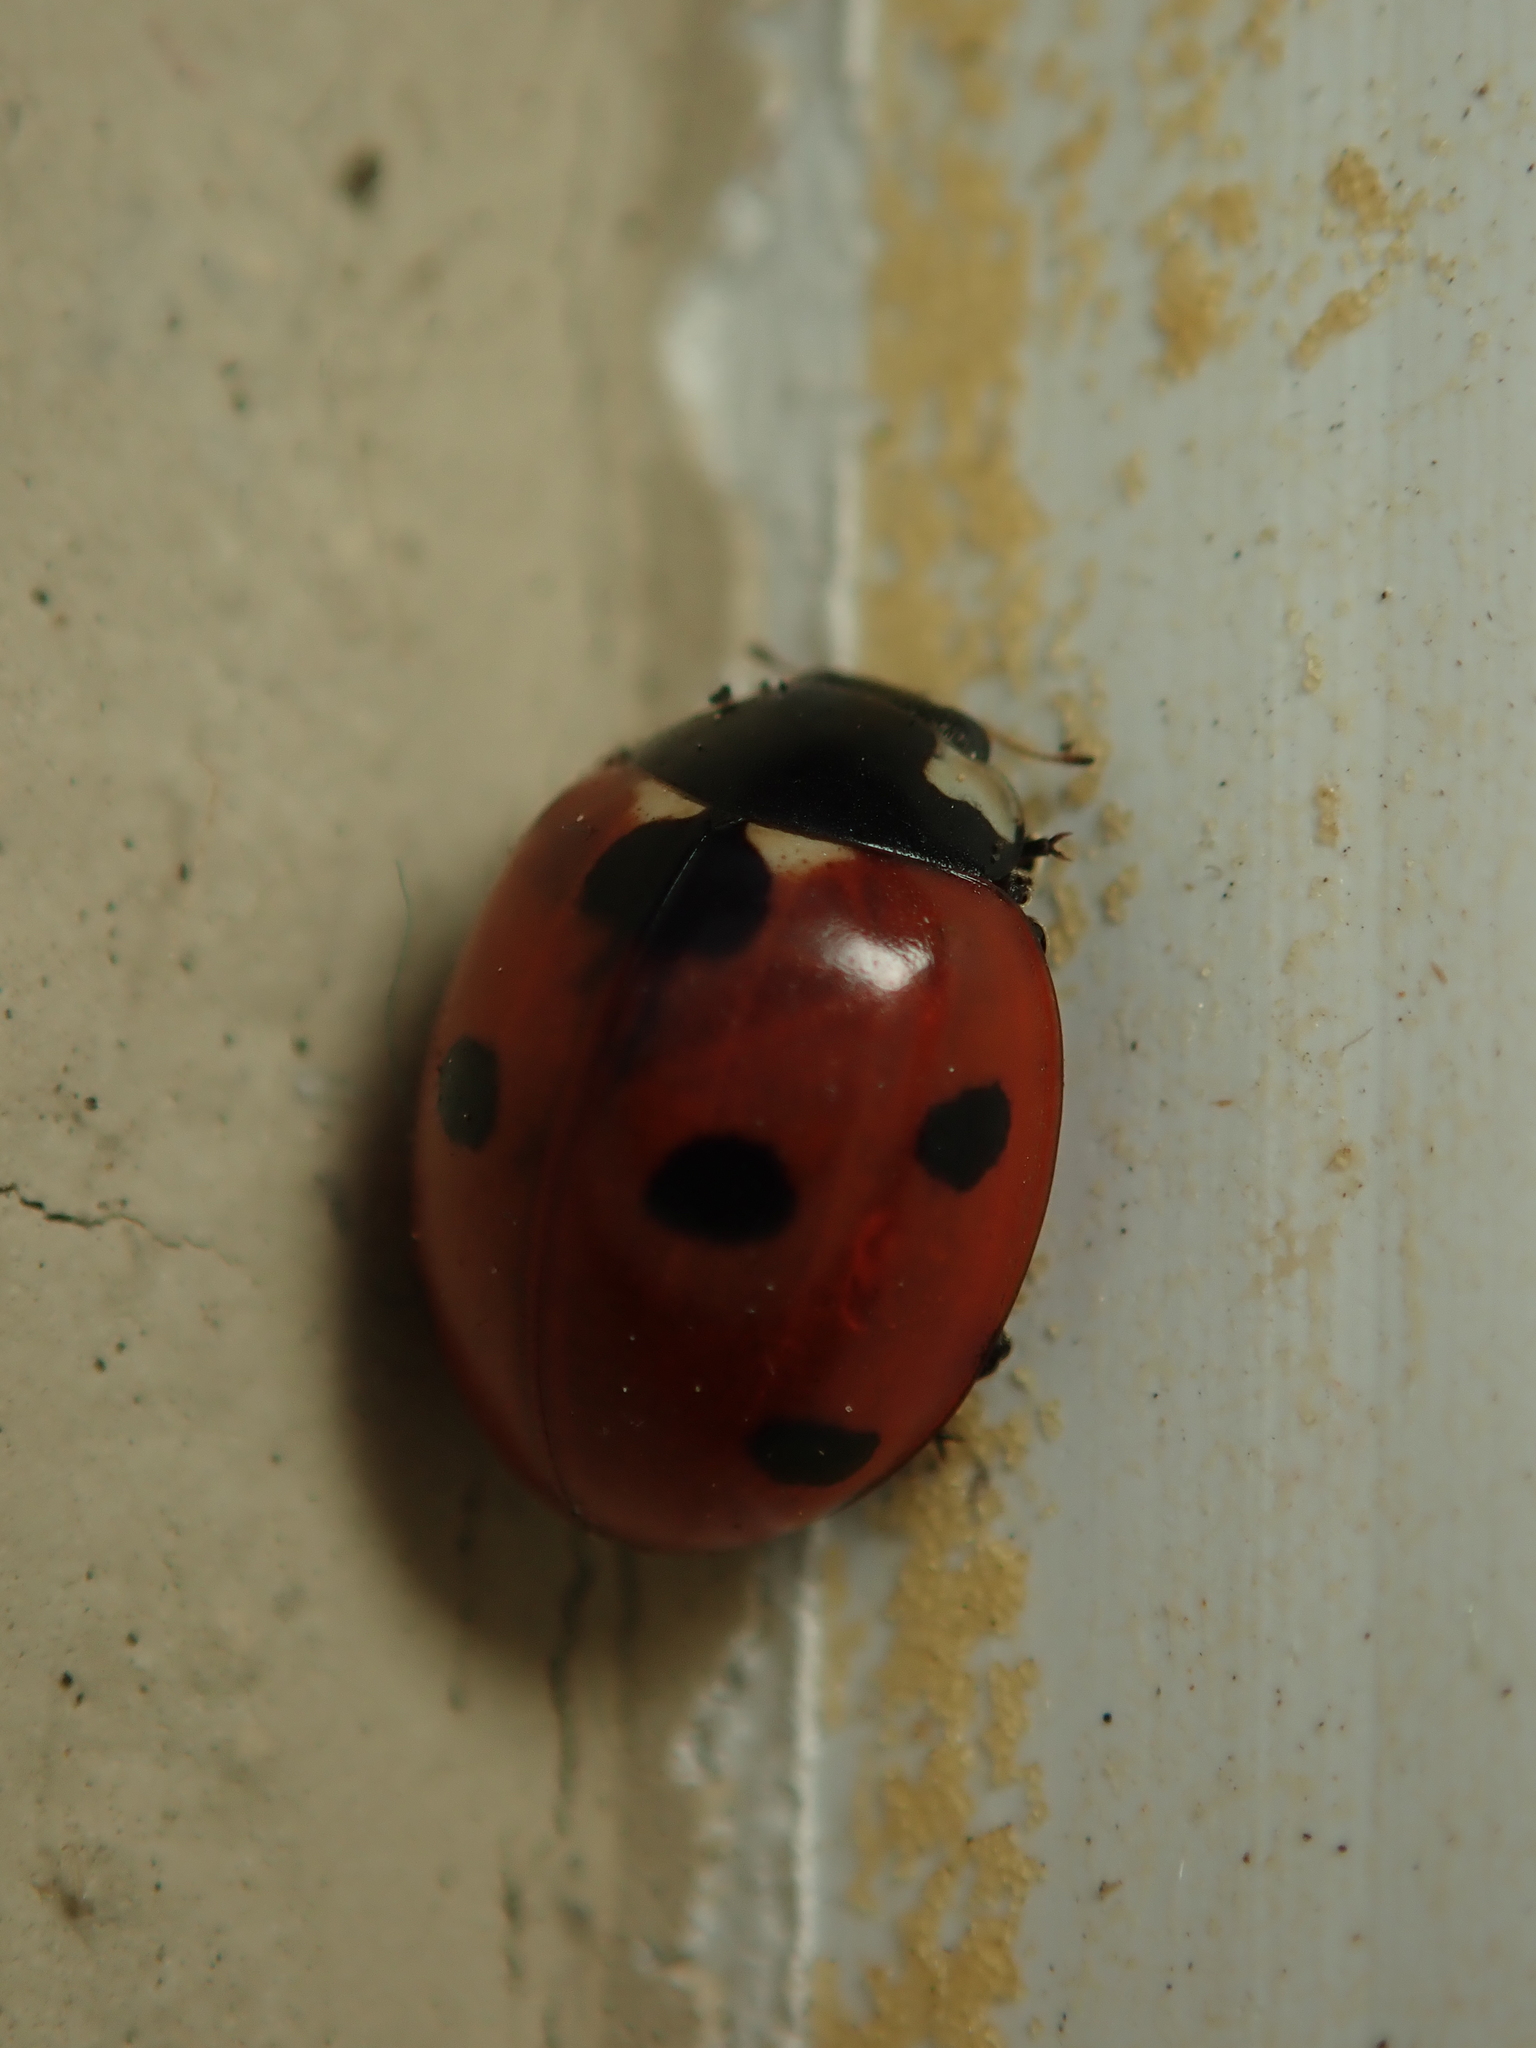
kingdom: Animalia
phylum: Arthropoda
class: Insecta
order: Coleoptera
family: Coccinellidae
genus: Coccinella
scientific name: Coccinella septempunctata
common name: Sevenspotted lady beetle
